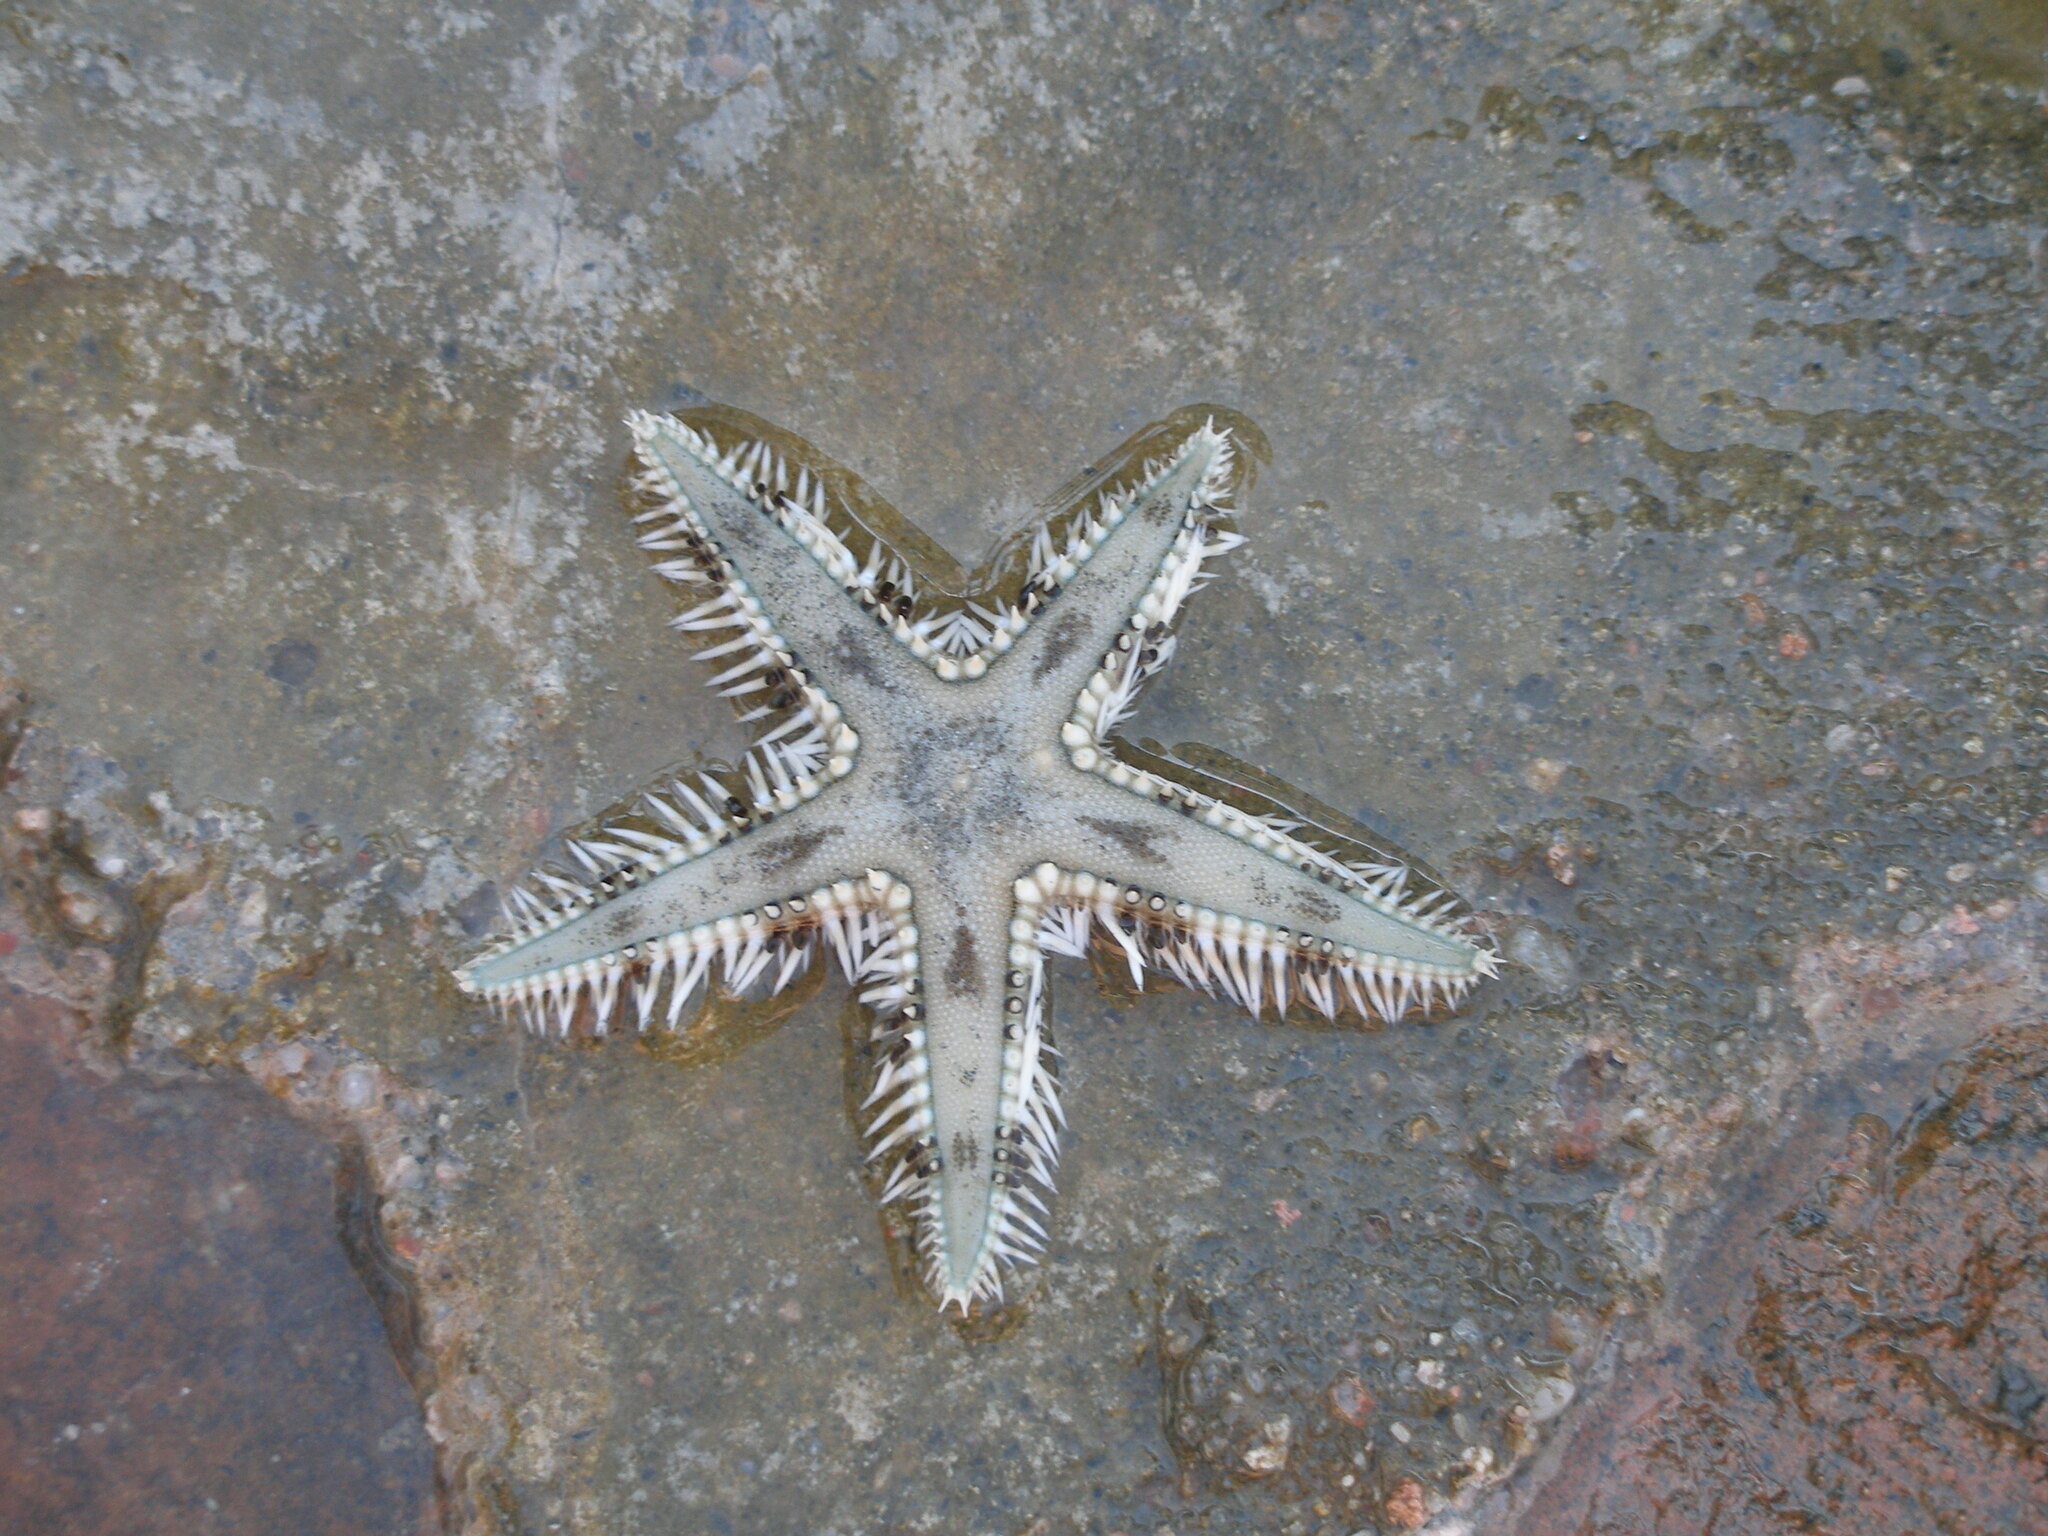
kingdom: Animalia
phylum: Echinodermata
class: Asteroidea
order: Paxillosida
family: Astropectinidae
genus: Astropecten
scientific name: Astropecten polyacanthus
